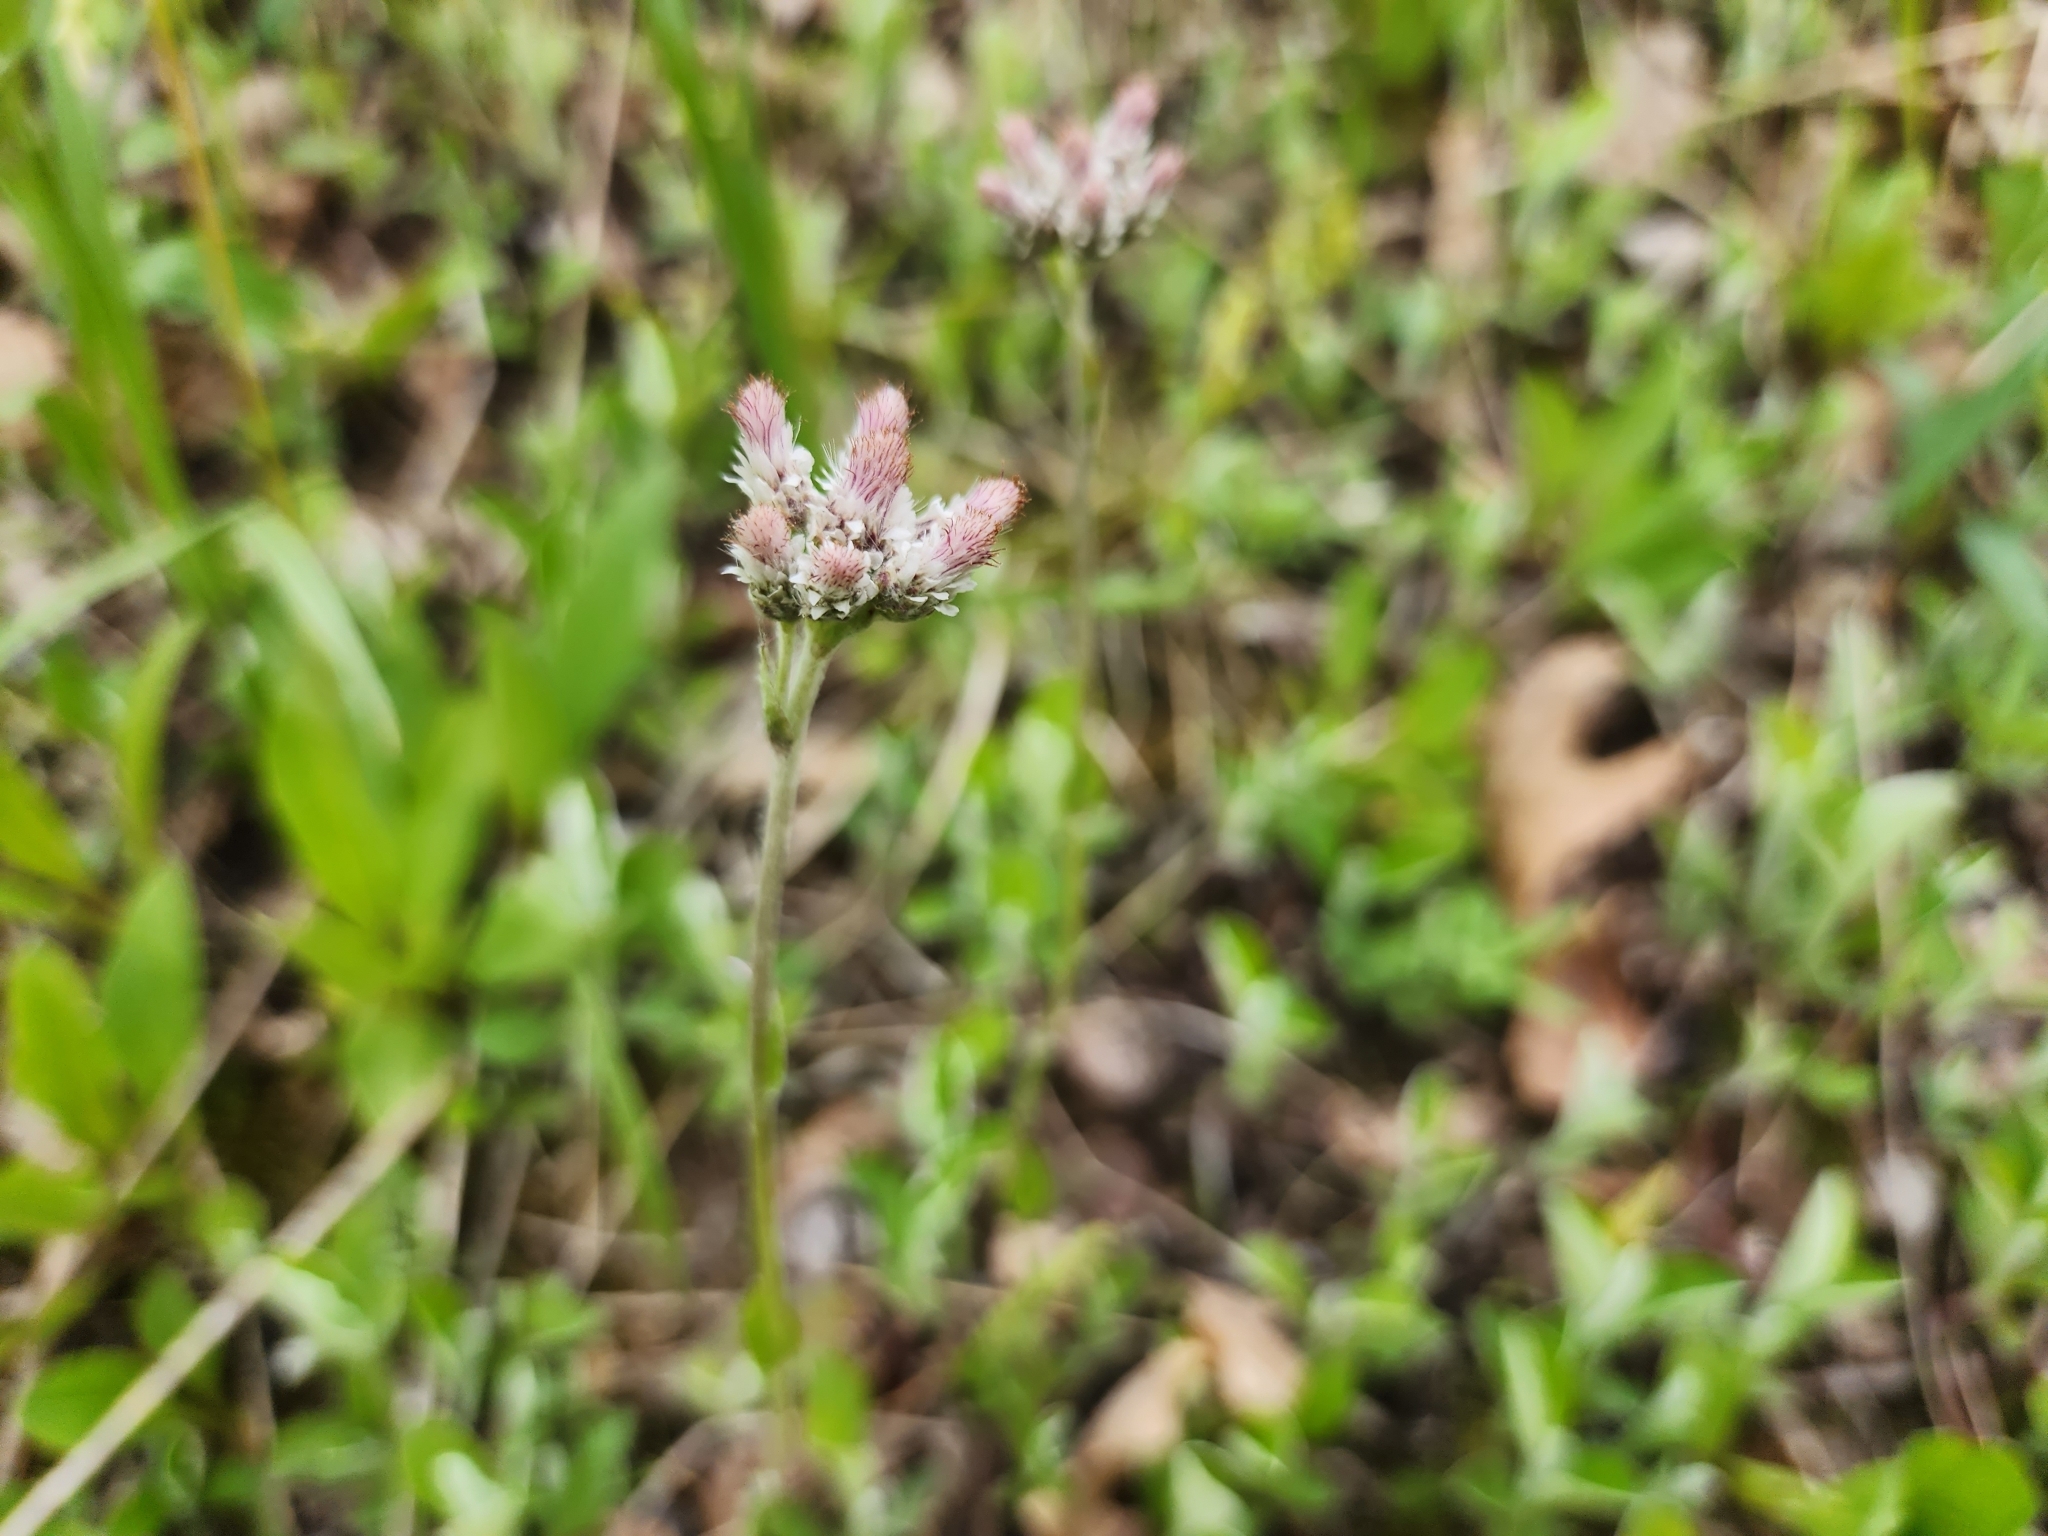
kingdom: Plantae
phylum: Tracheophyta
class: Magnoliopsida
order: Asterales
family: Asteraceae
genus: Antennaria
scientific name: Antennaria parlinii
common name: Parlin's pussytoes
